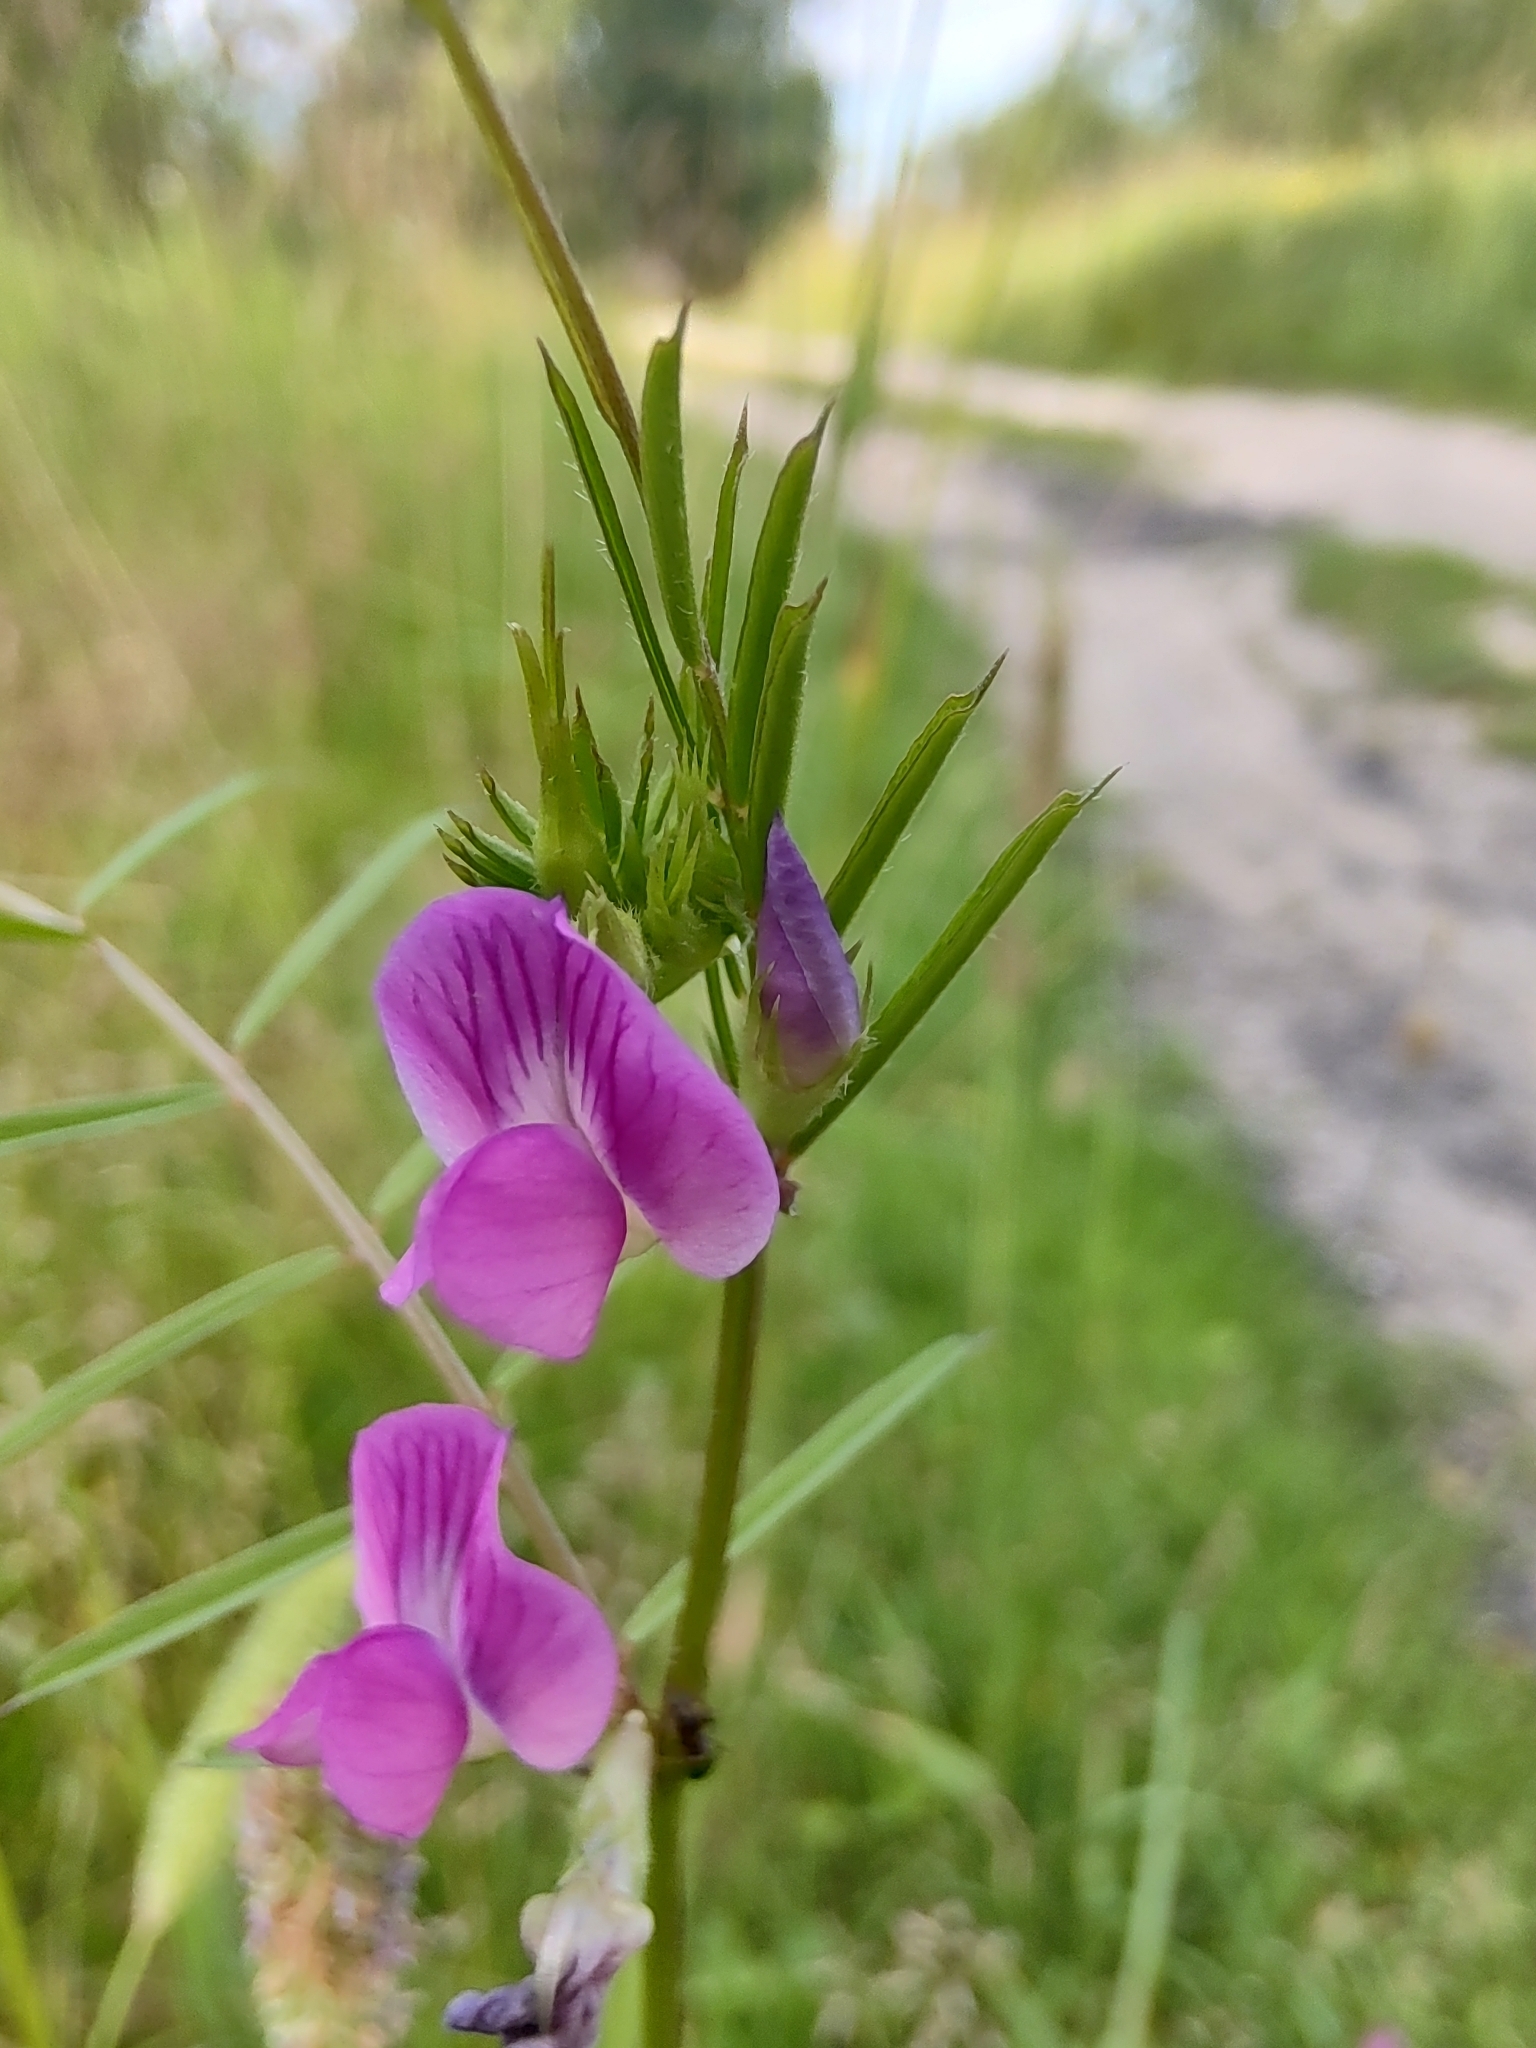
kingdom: Plantae
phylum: Tracheophyta
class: Magnoliopsida
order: Fabales
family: Fabaceae
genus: Vicia
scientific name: Vicia sativa
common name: Garden vetch
